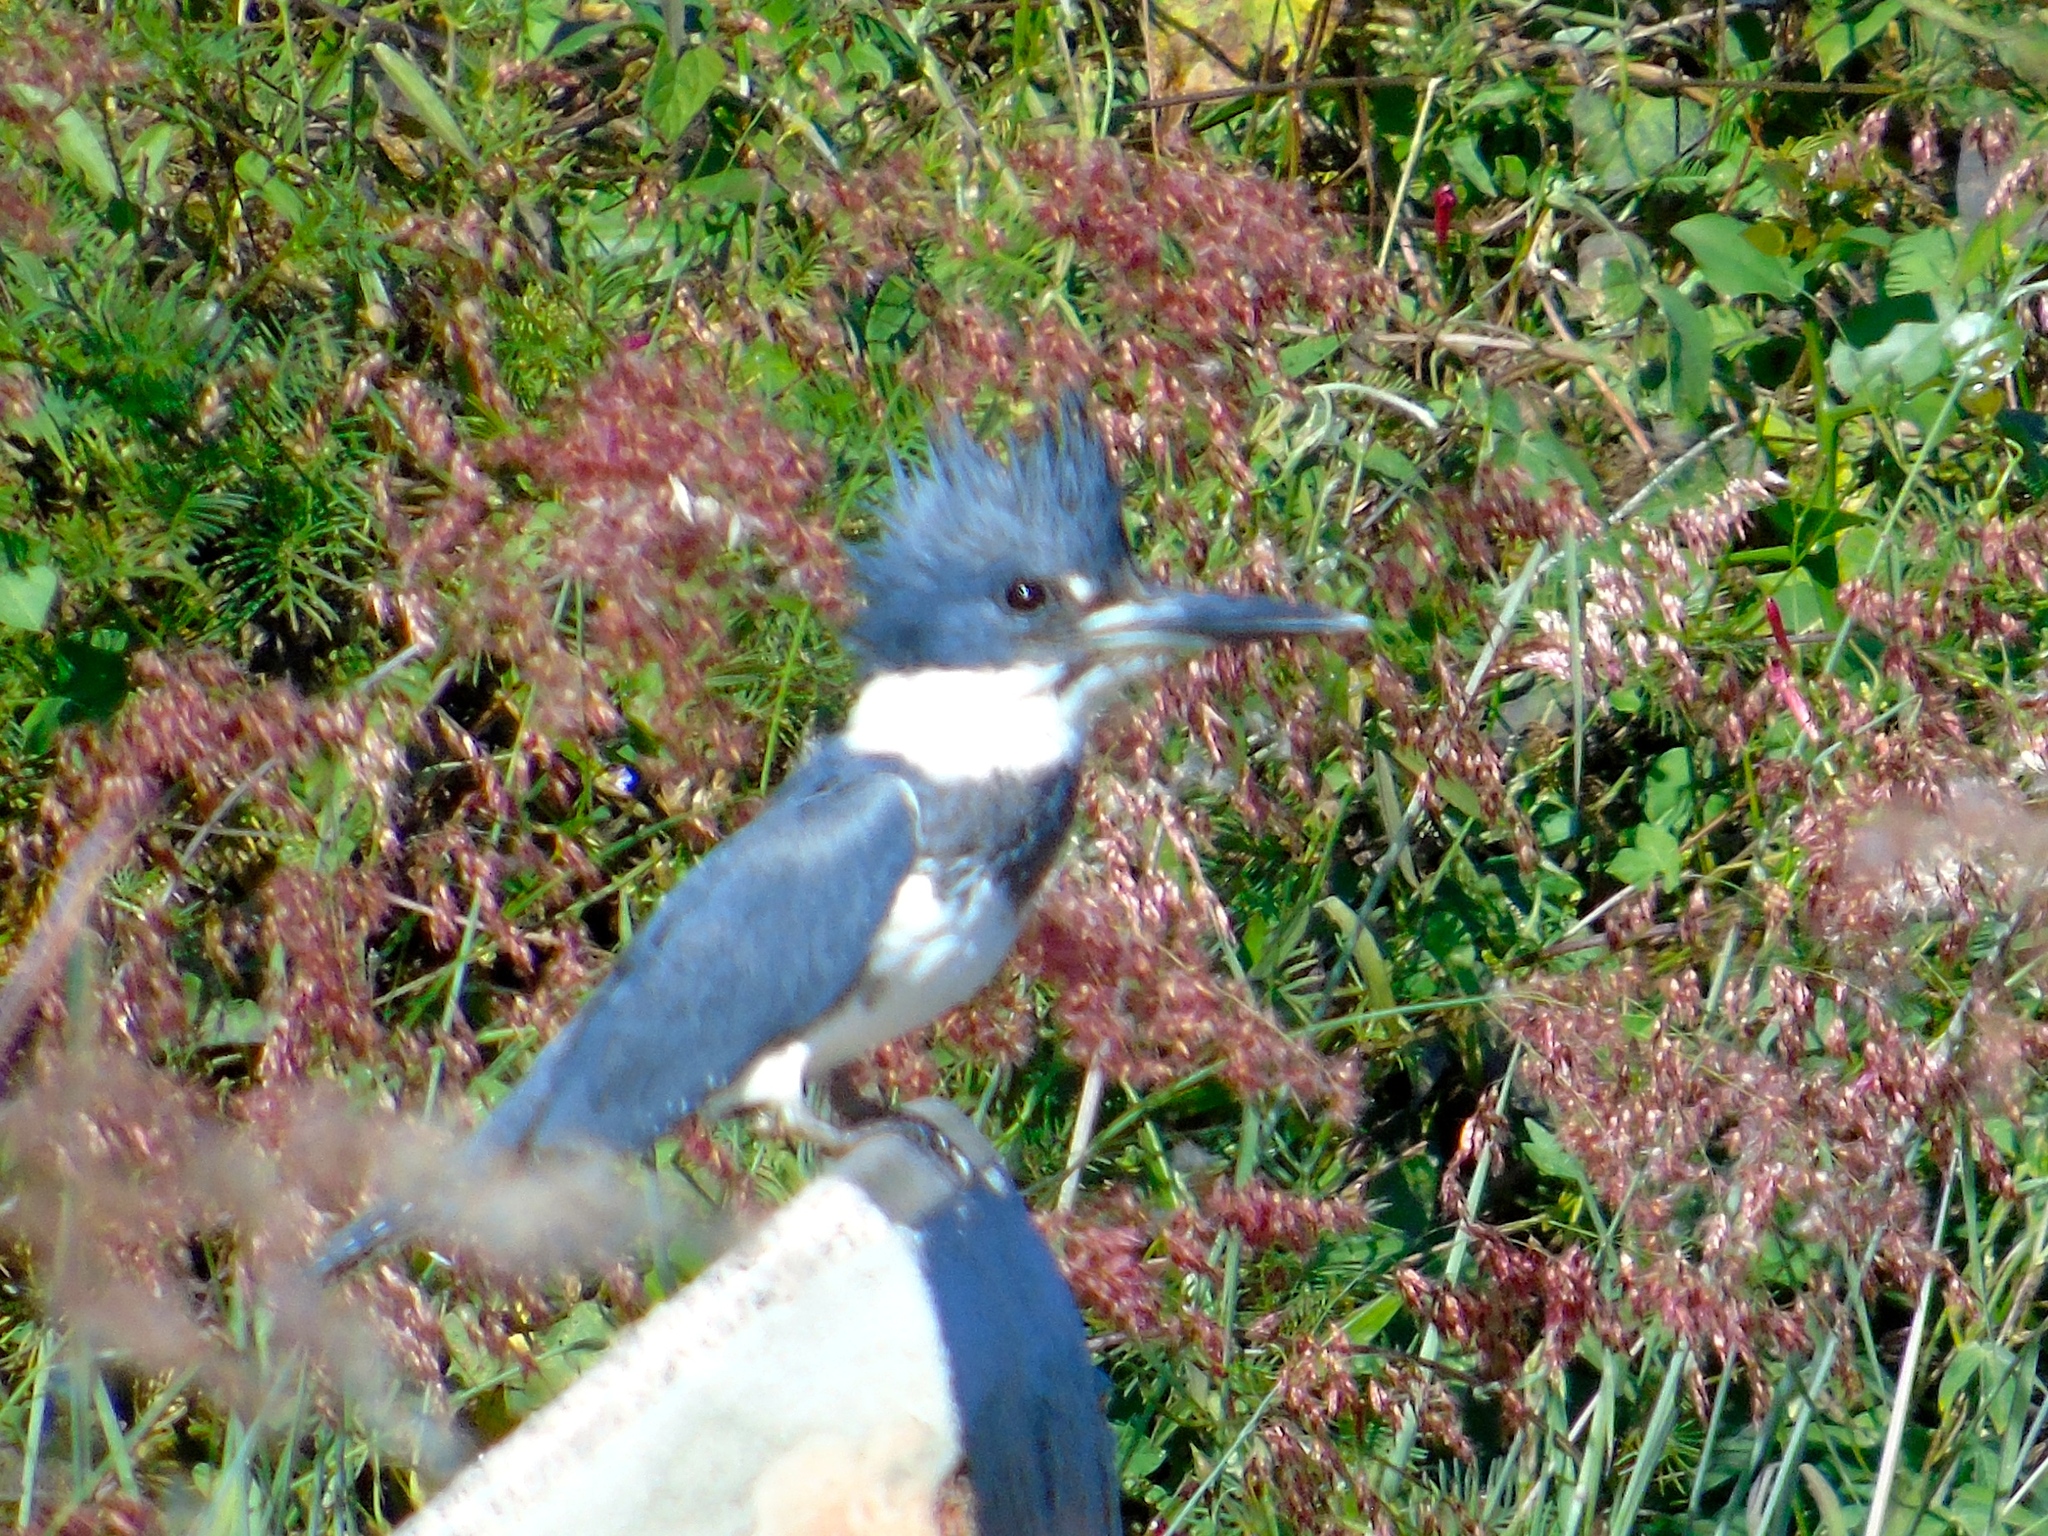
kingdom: Animalia
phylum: Chordata
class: Aves
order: Coraciiformes
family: Alcedinidae
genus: Megaceryle
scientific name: Megaceryle alcyon
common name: Belted kingfisher
